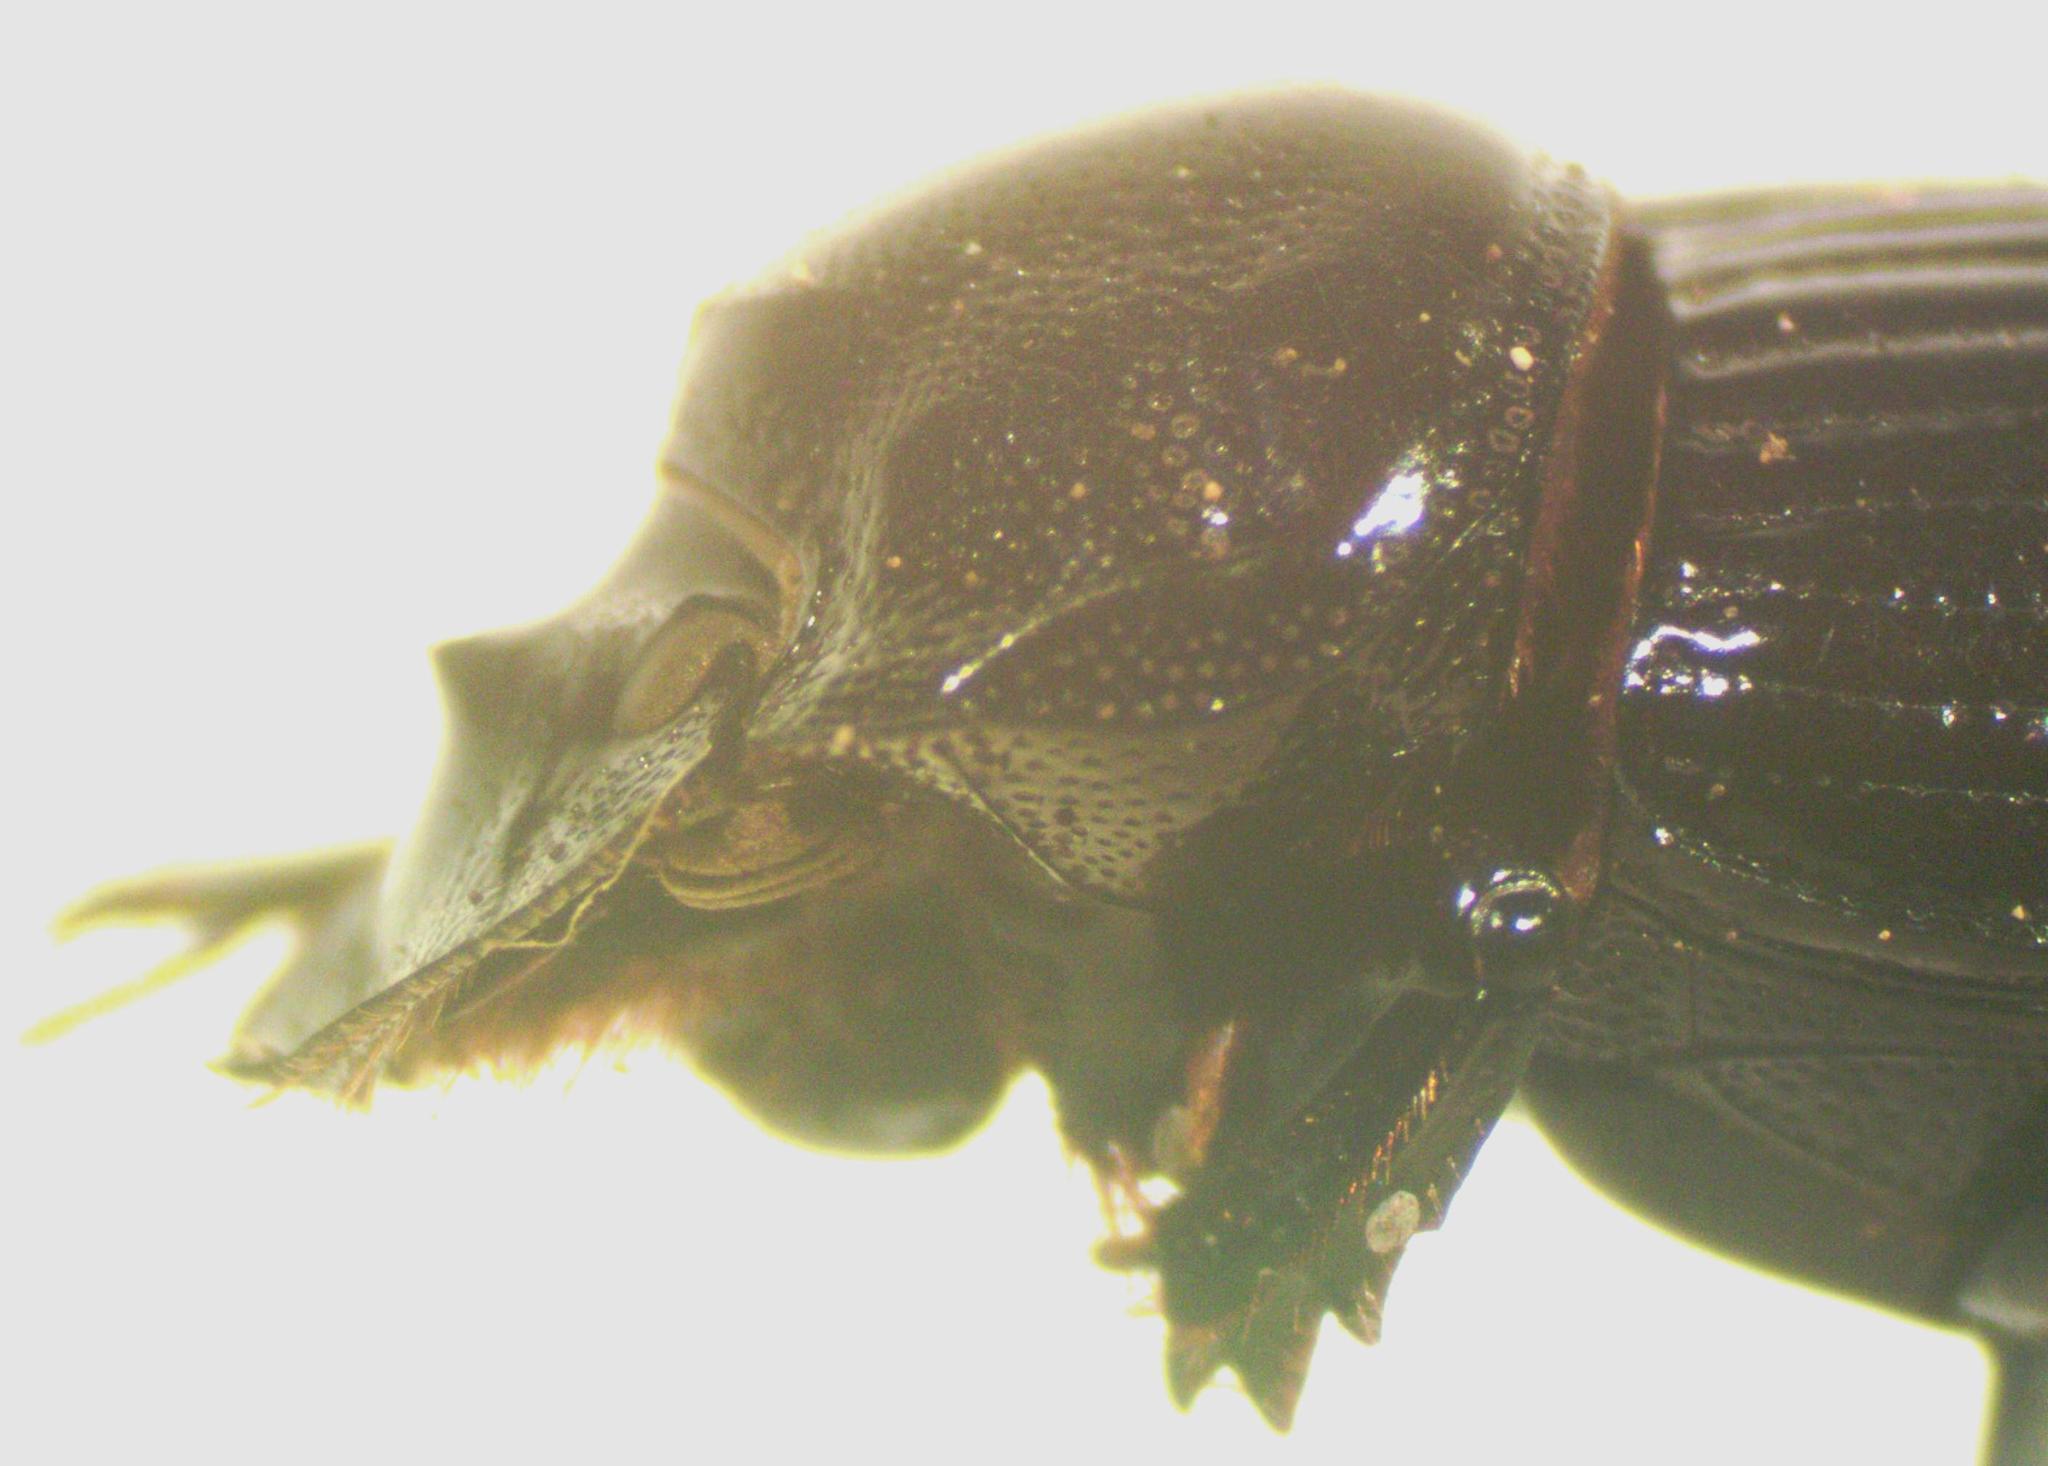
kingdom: Animalia
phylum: Arthropoda
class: Insecta
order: Coleoptera
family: Scarabaeidae
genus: Copris
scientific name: Copris costaricensis
